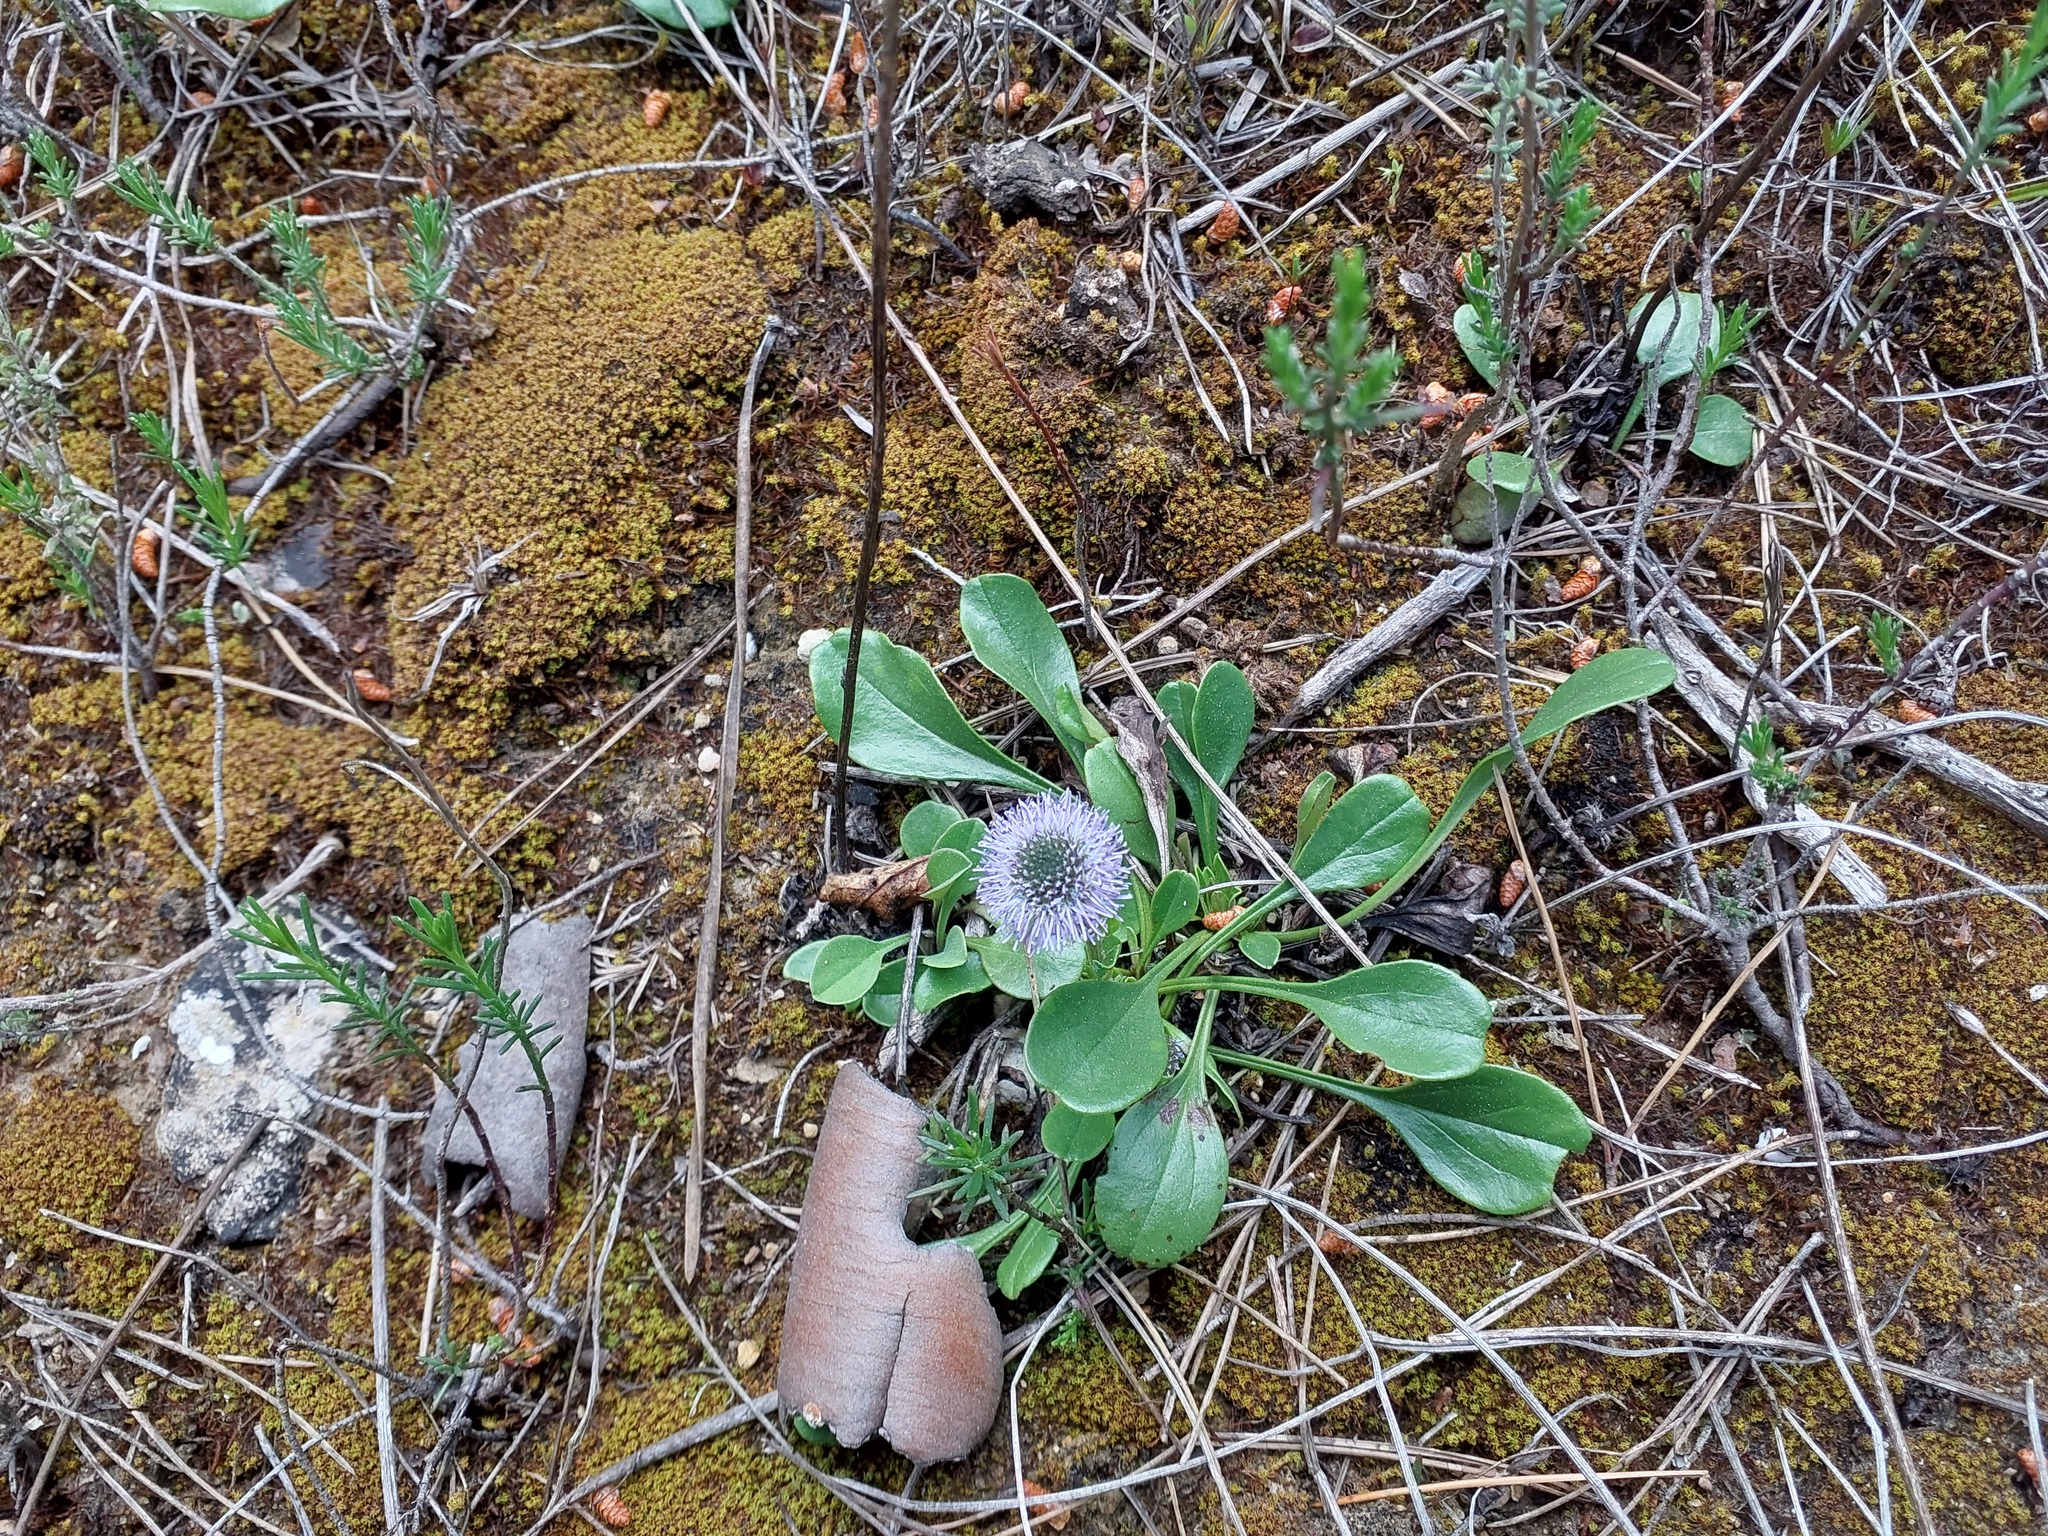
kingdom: Plantae
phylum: Tracheophyta
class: Magnoliopsida
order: Lamiales
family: Plantaginaceae
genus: Globularia
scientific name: Globularia bisnagarica
